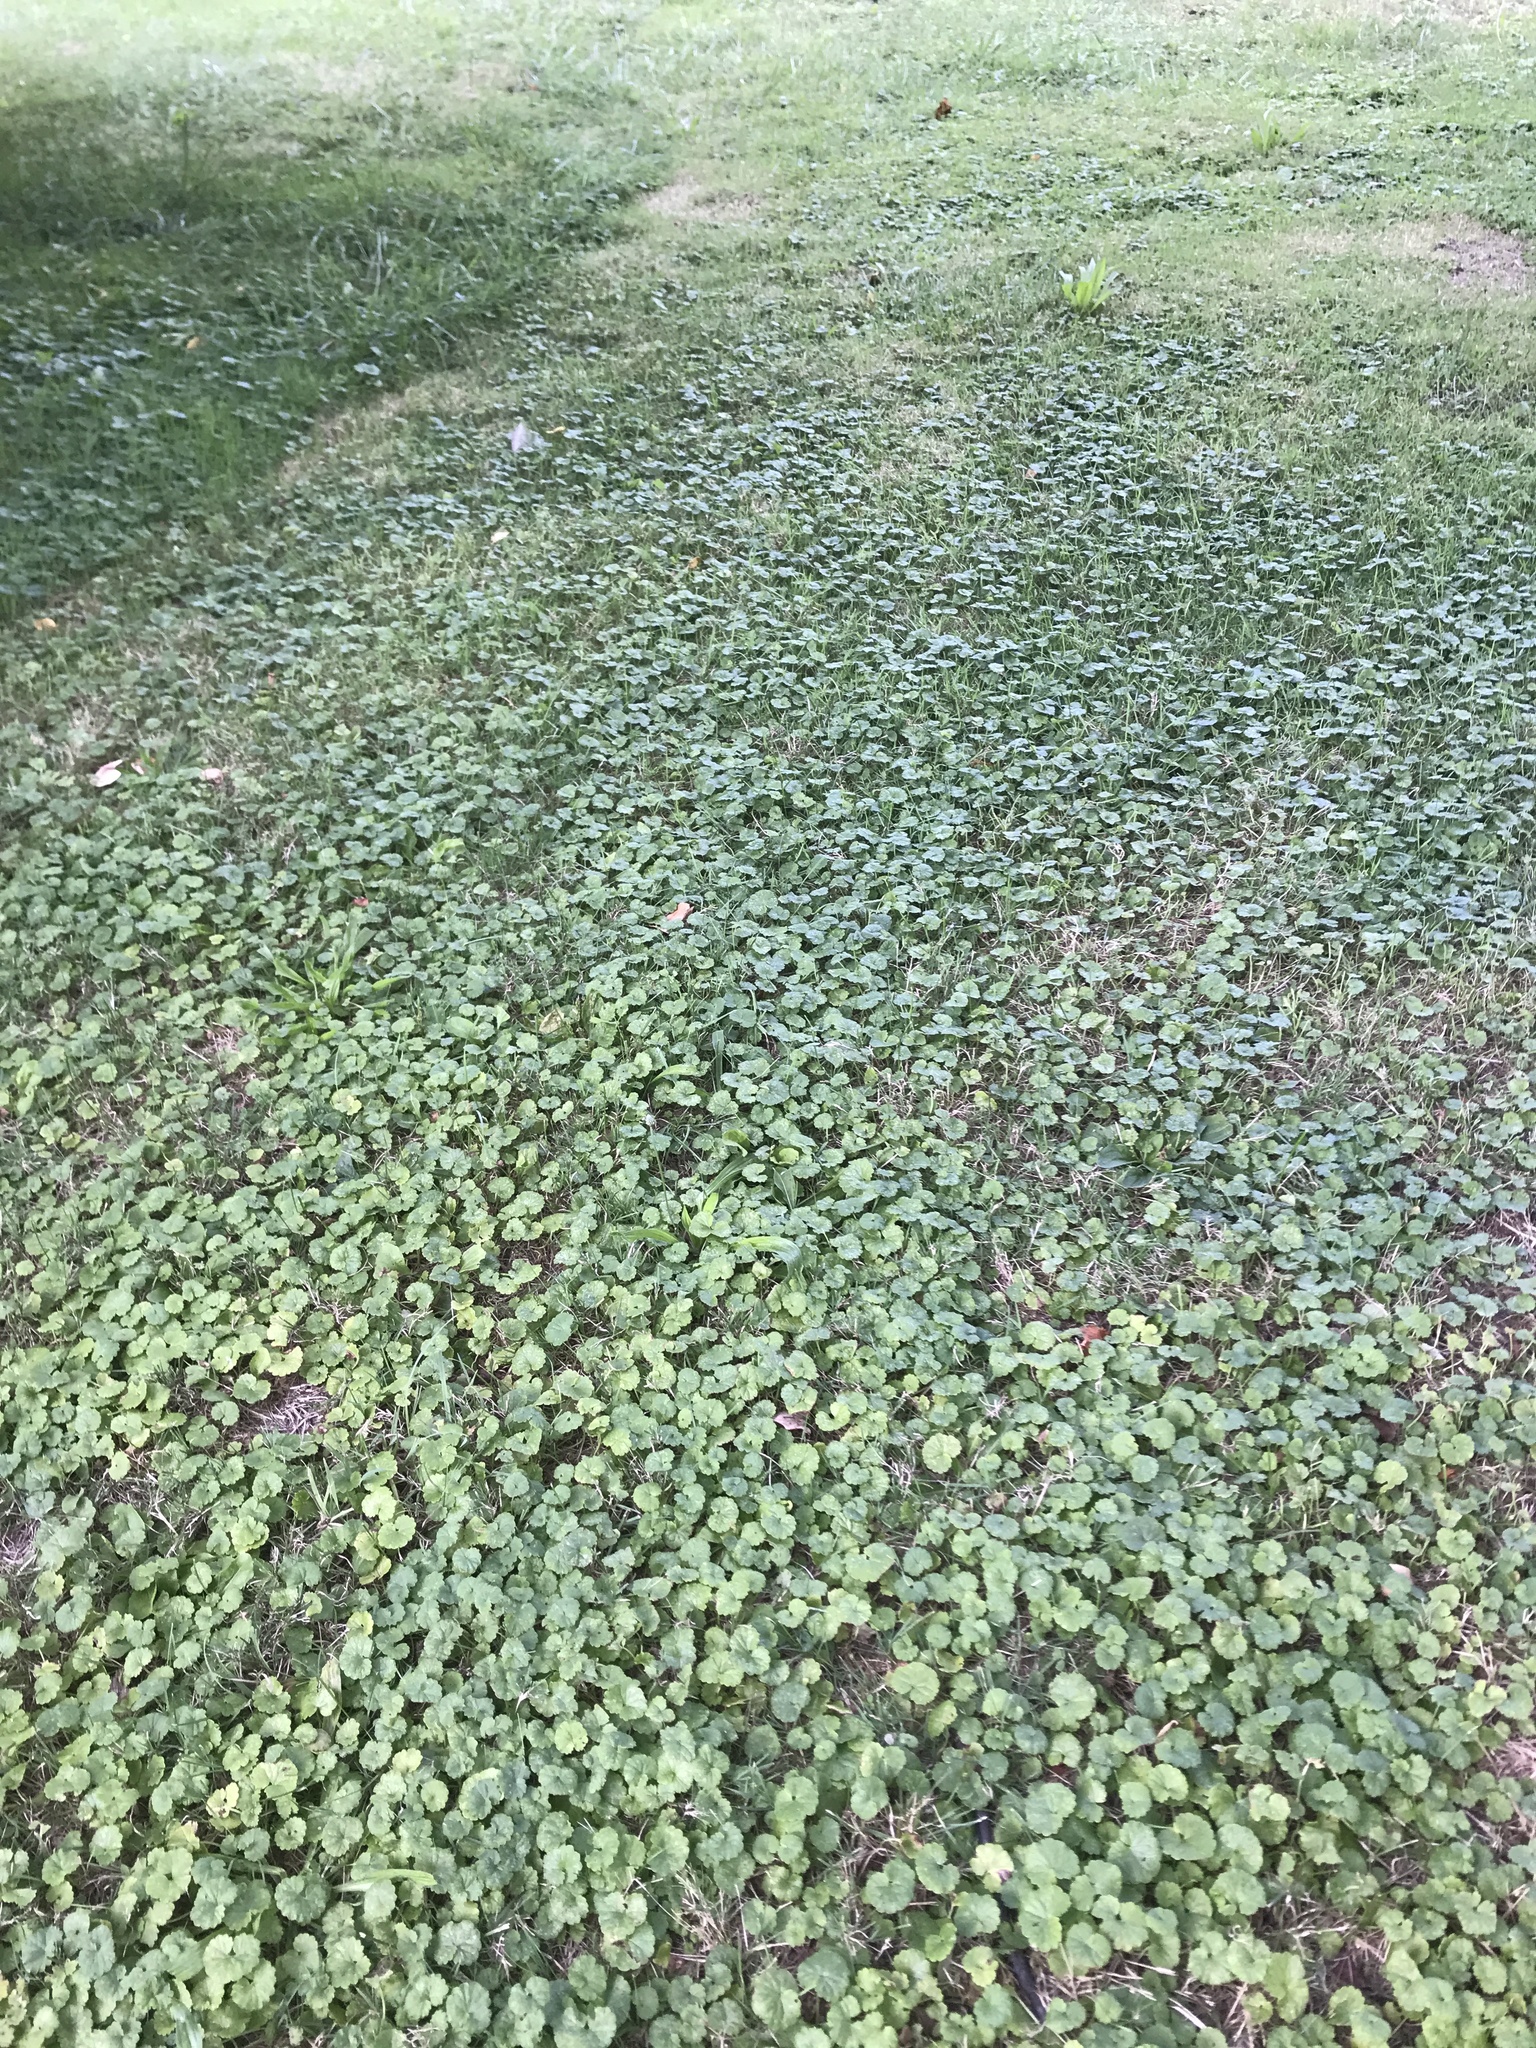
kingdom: Plantae
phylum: Tracheophyta
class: Magnoliopsida
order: Lamiales
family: Lamiaceae
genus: Glechoma
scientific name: Glechoma hederacea
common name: Ground ivy
